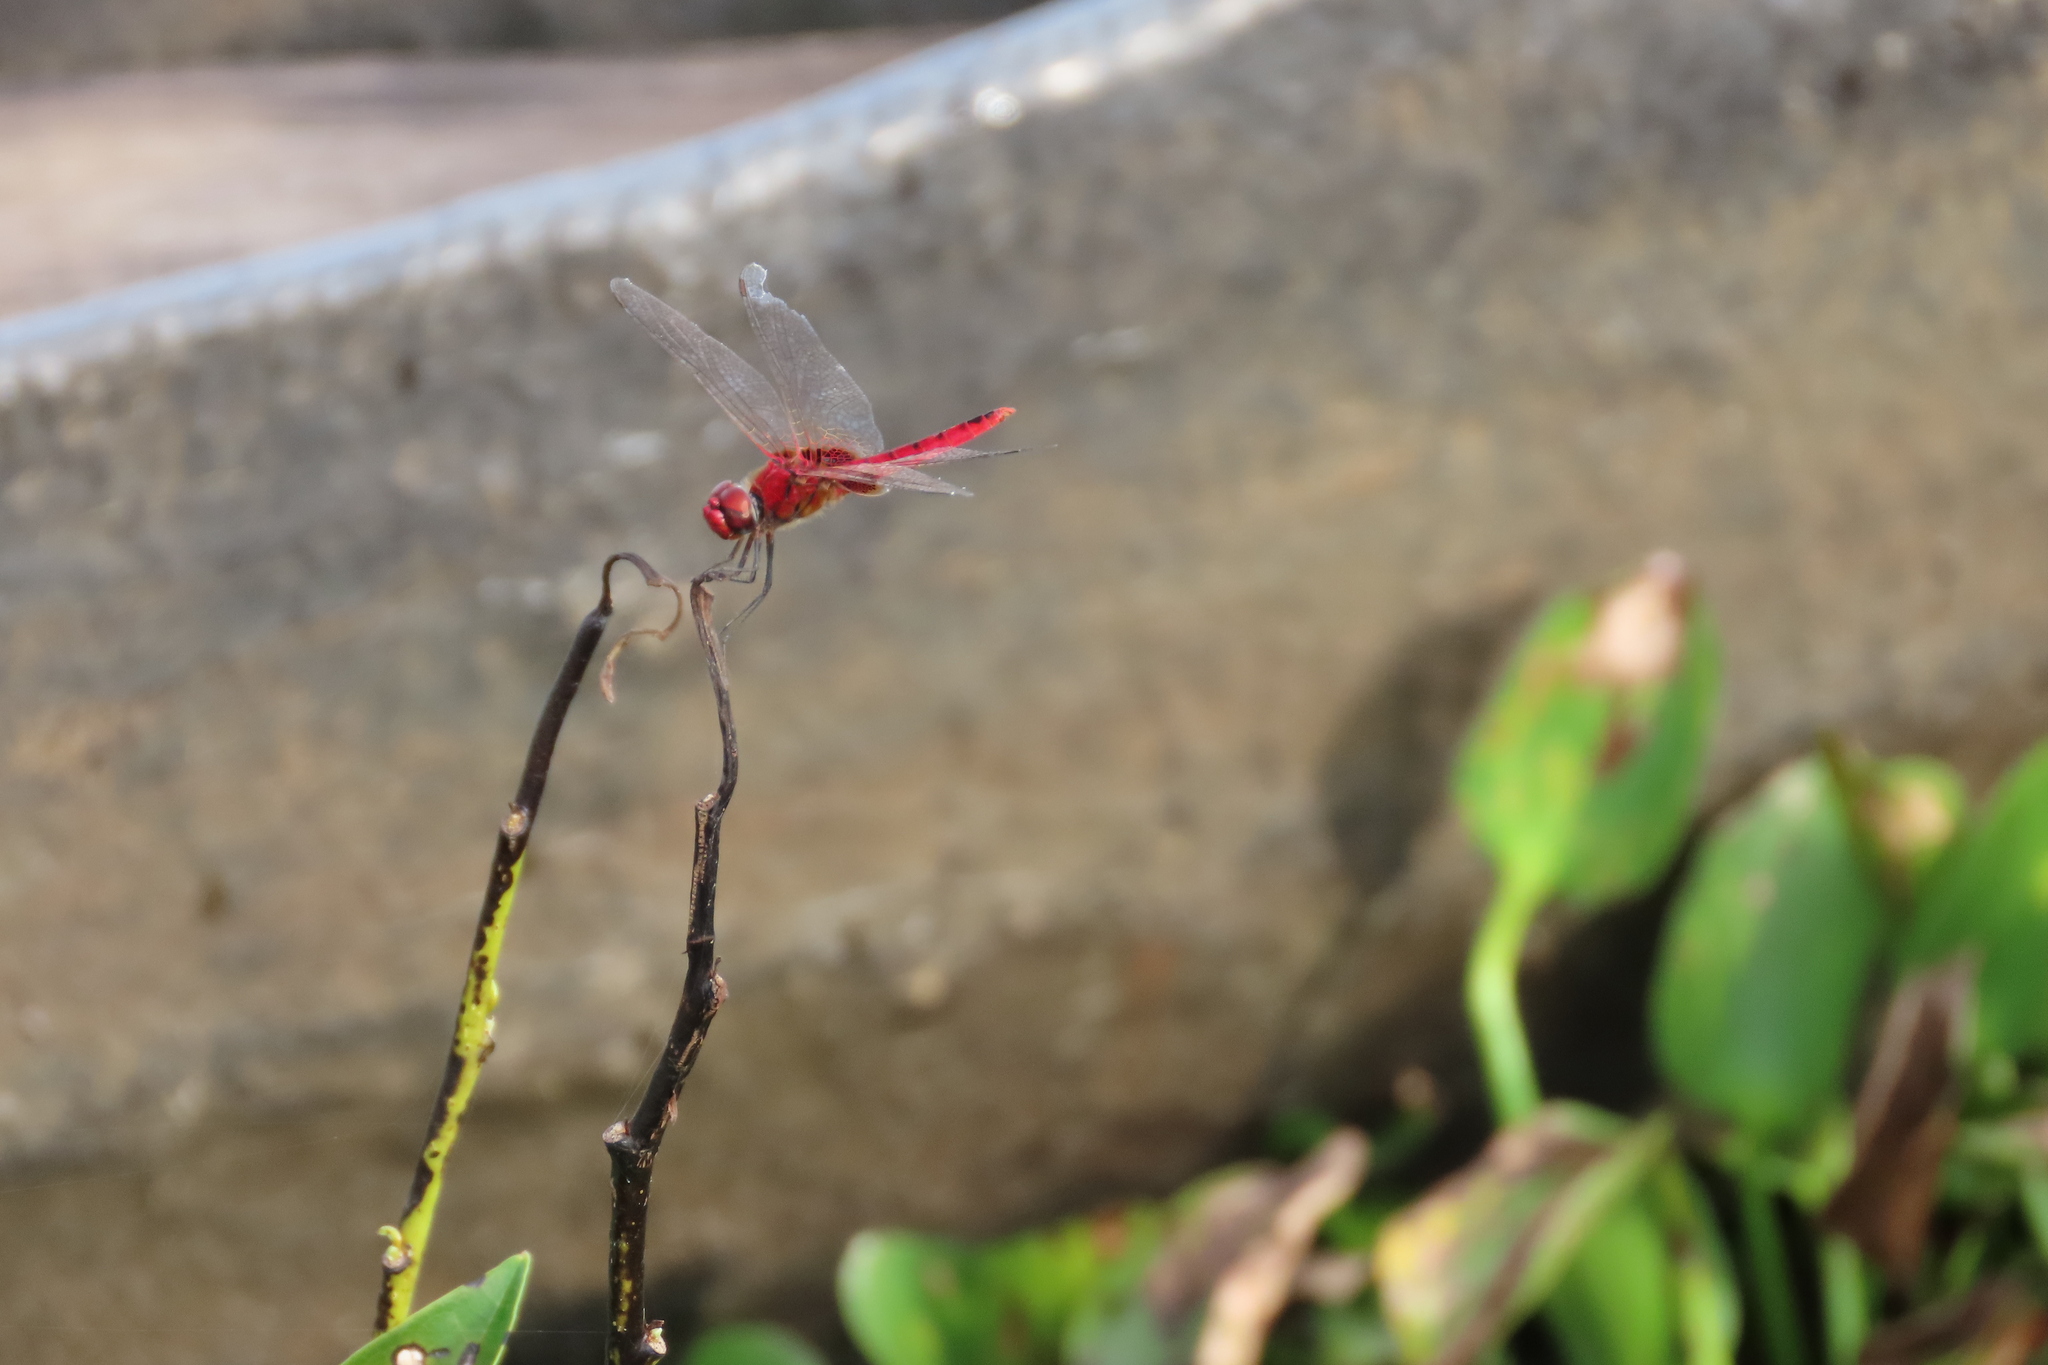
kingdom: Animalia
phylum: Arthropoda
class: Insecta
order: Odonata
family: Libellulidae
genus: Urothemis
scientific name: Urothemis signata
